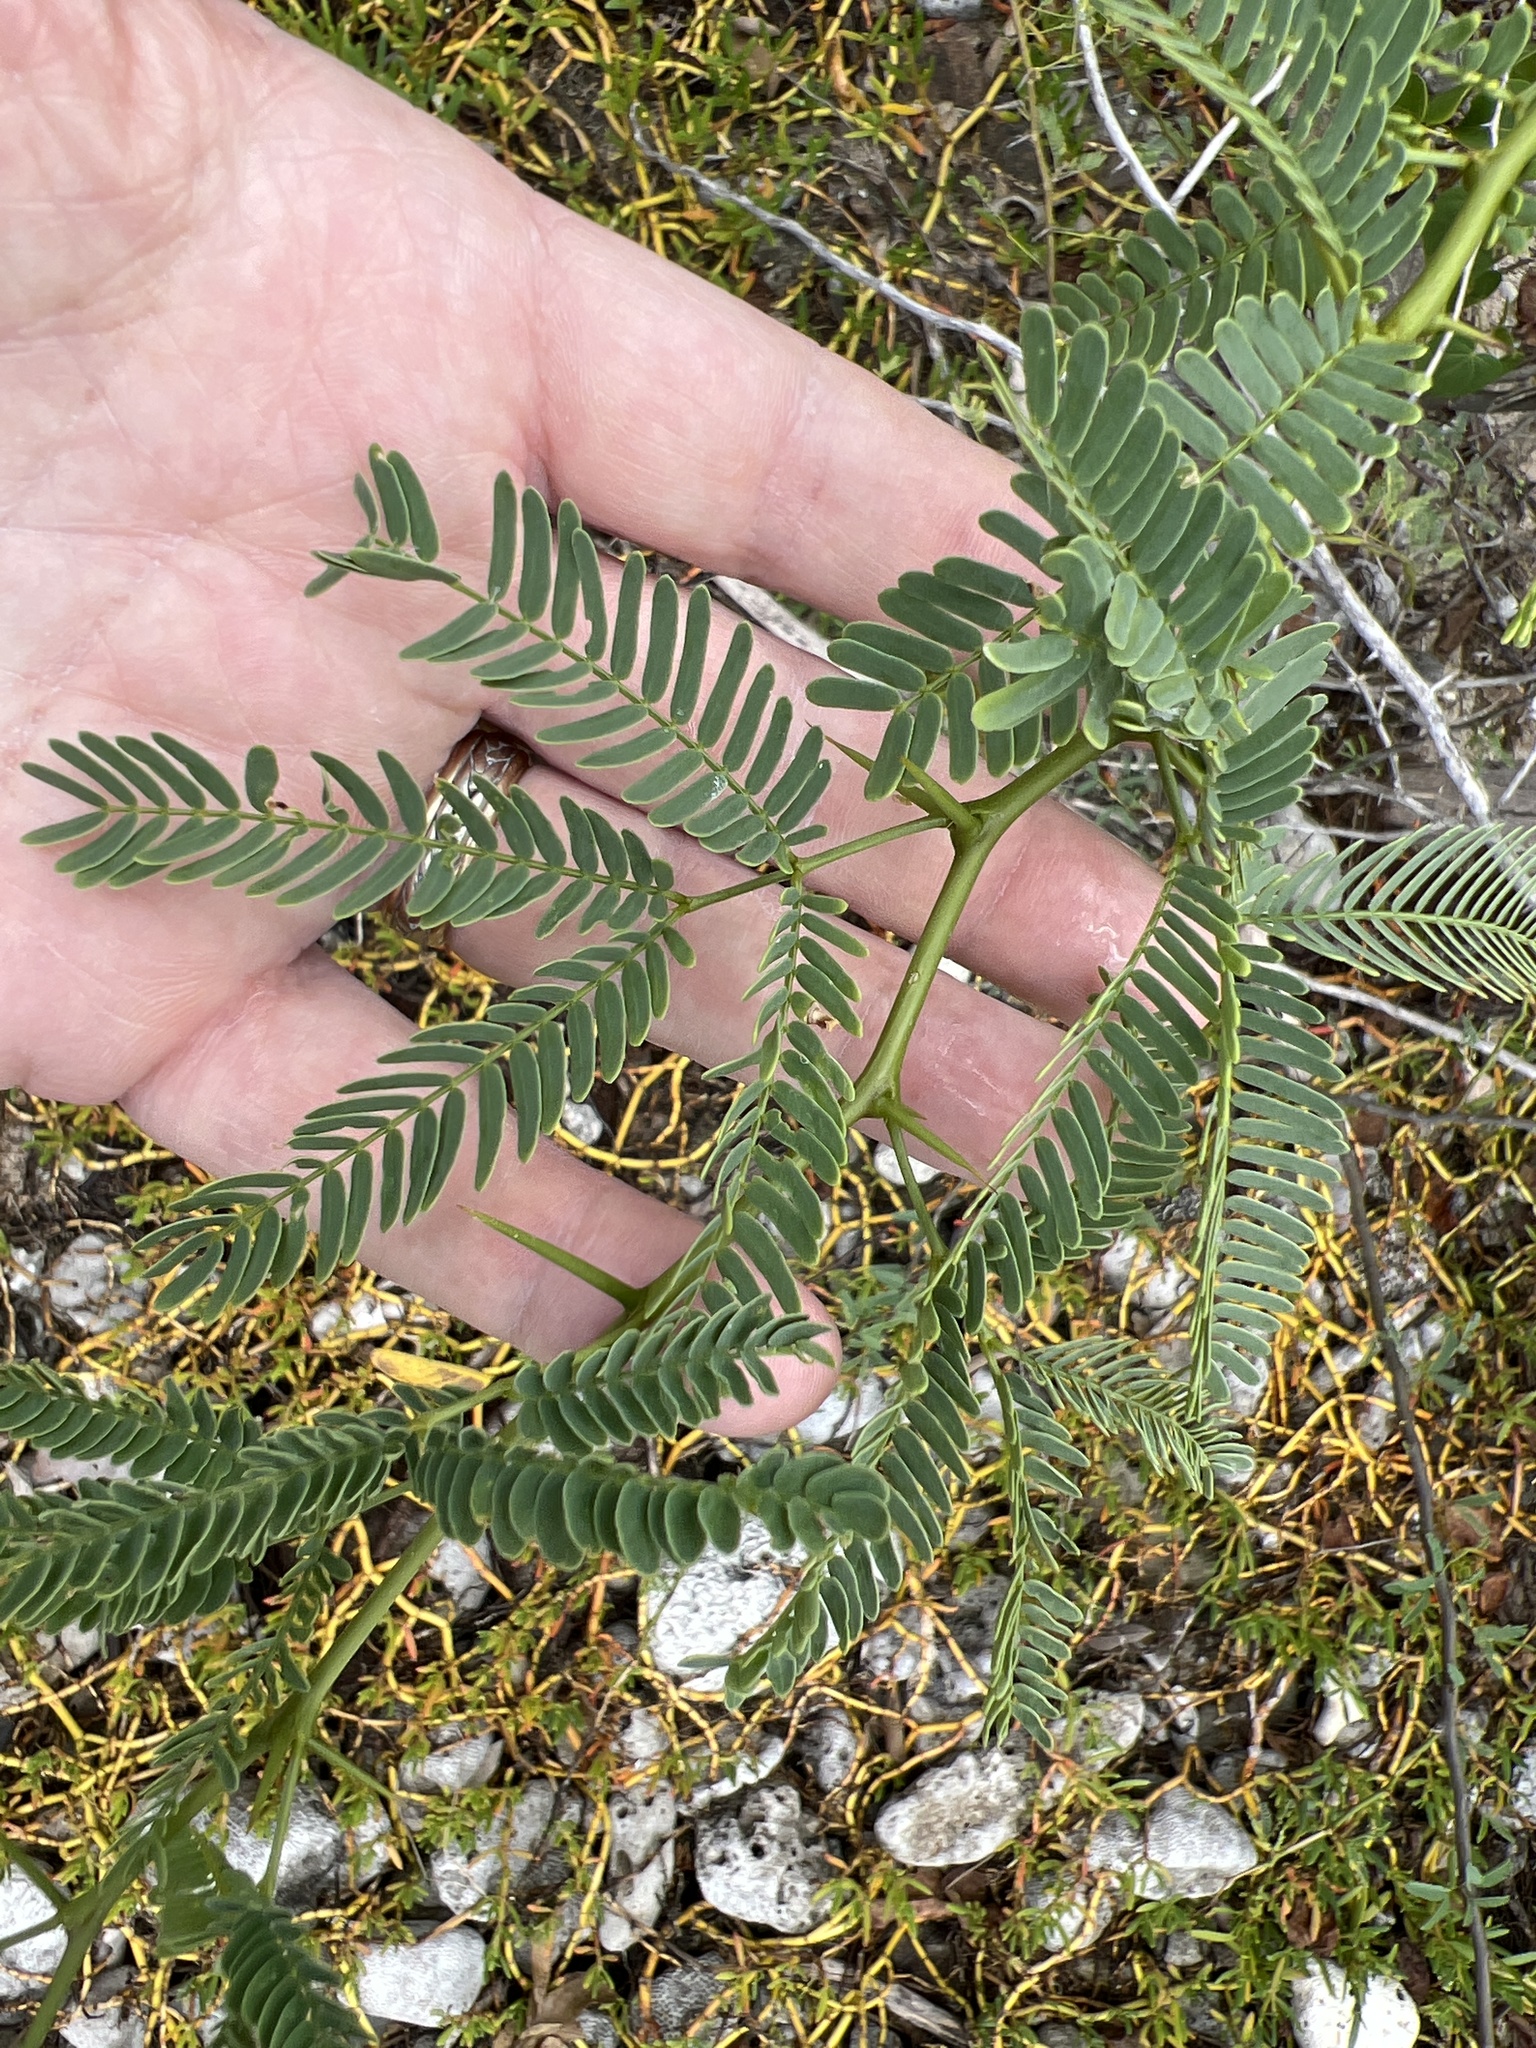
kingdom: Plantae
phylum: Tracheophyta
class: Magnoliopsida
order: Fabales
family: Fabaceae
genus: Prosopis
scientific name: Prosopis juliflora
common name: Mesquite
